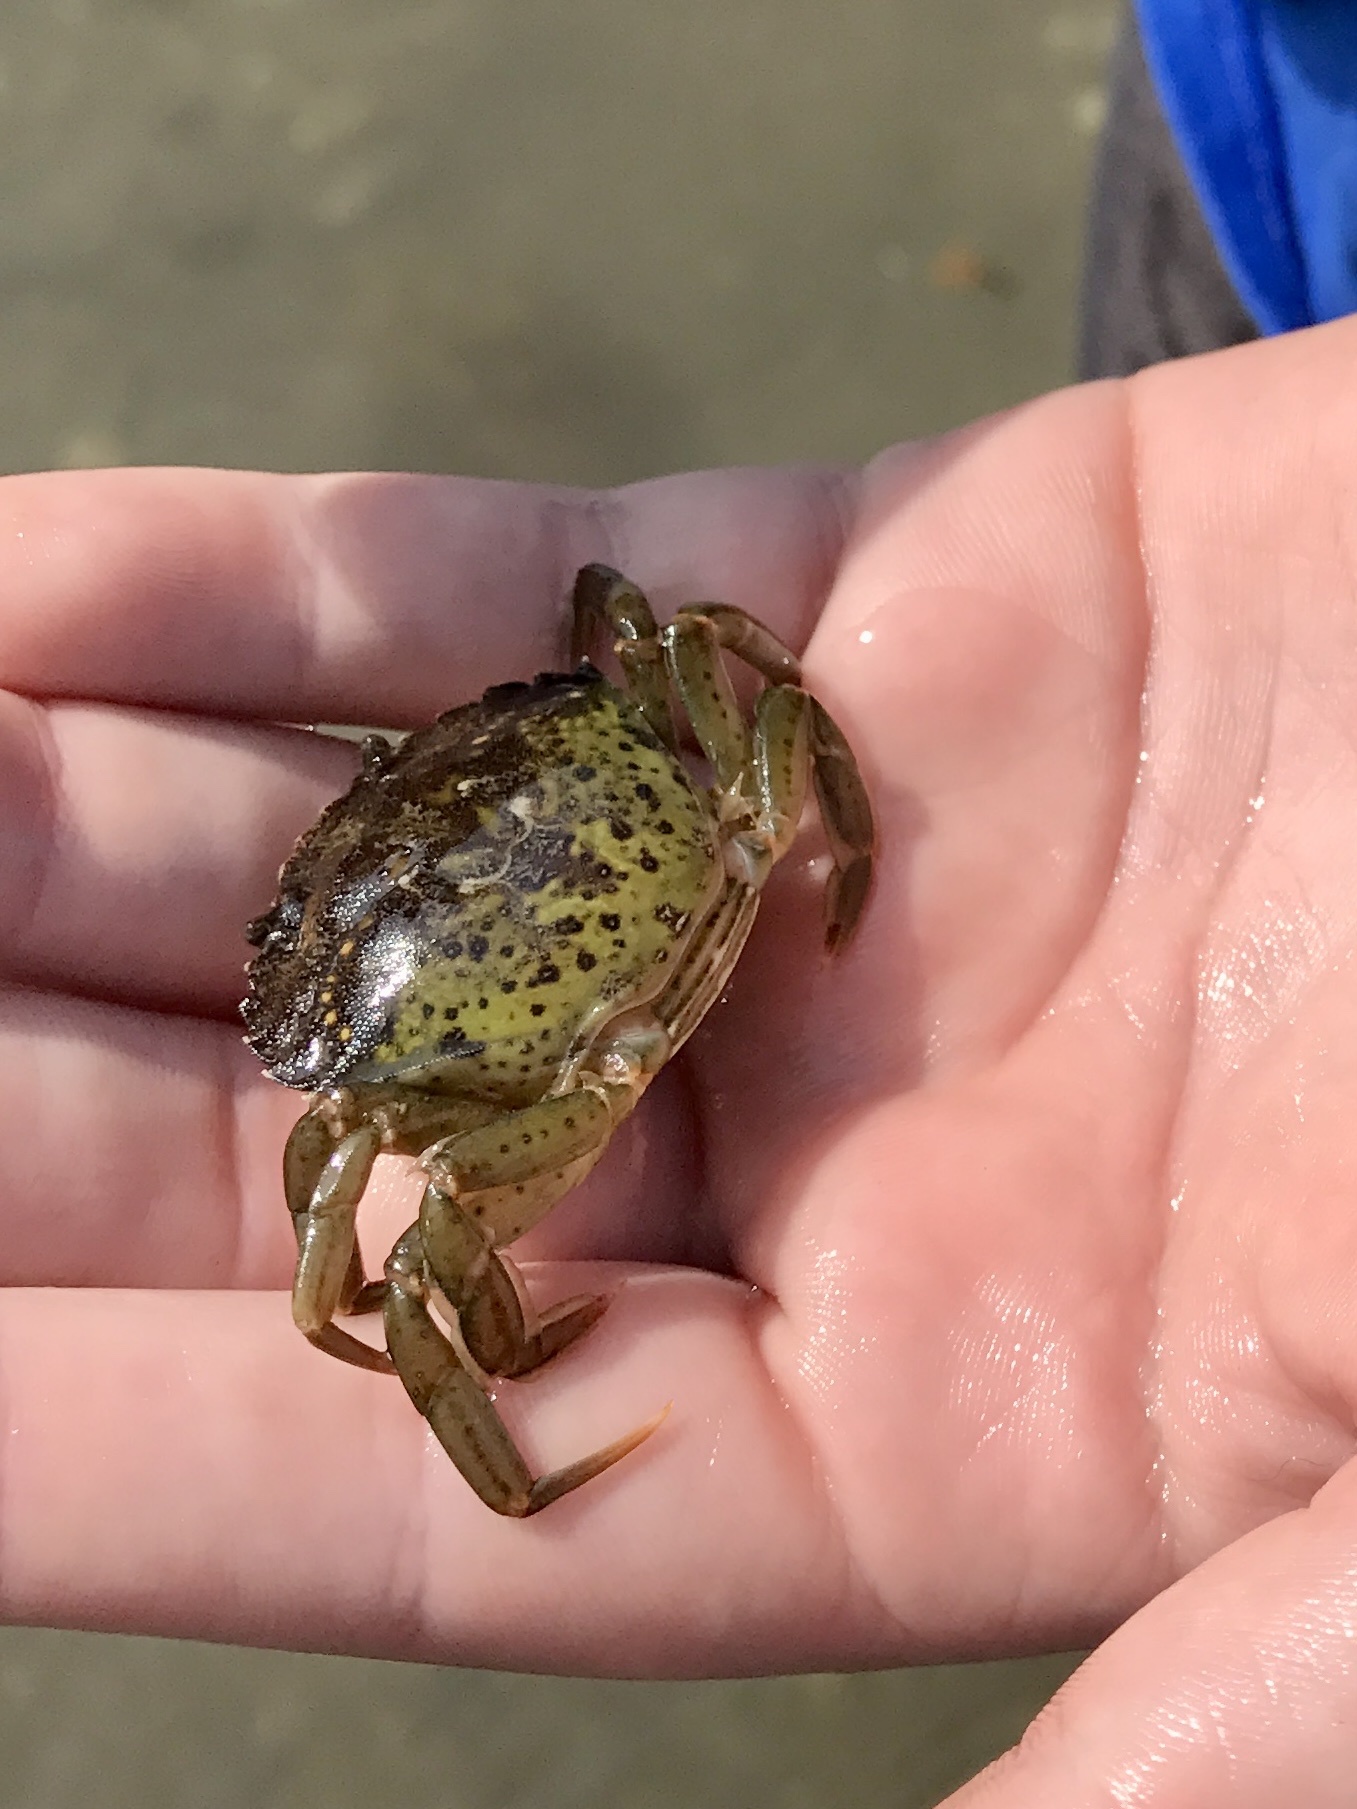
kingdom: Animalia
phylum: Arthropoda
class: Malacostraca
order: Decapoda
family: Carcinidae
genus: Carcinus
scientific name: Carcinus maenas
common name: European green crab
